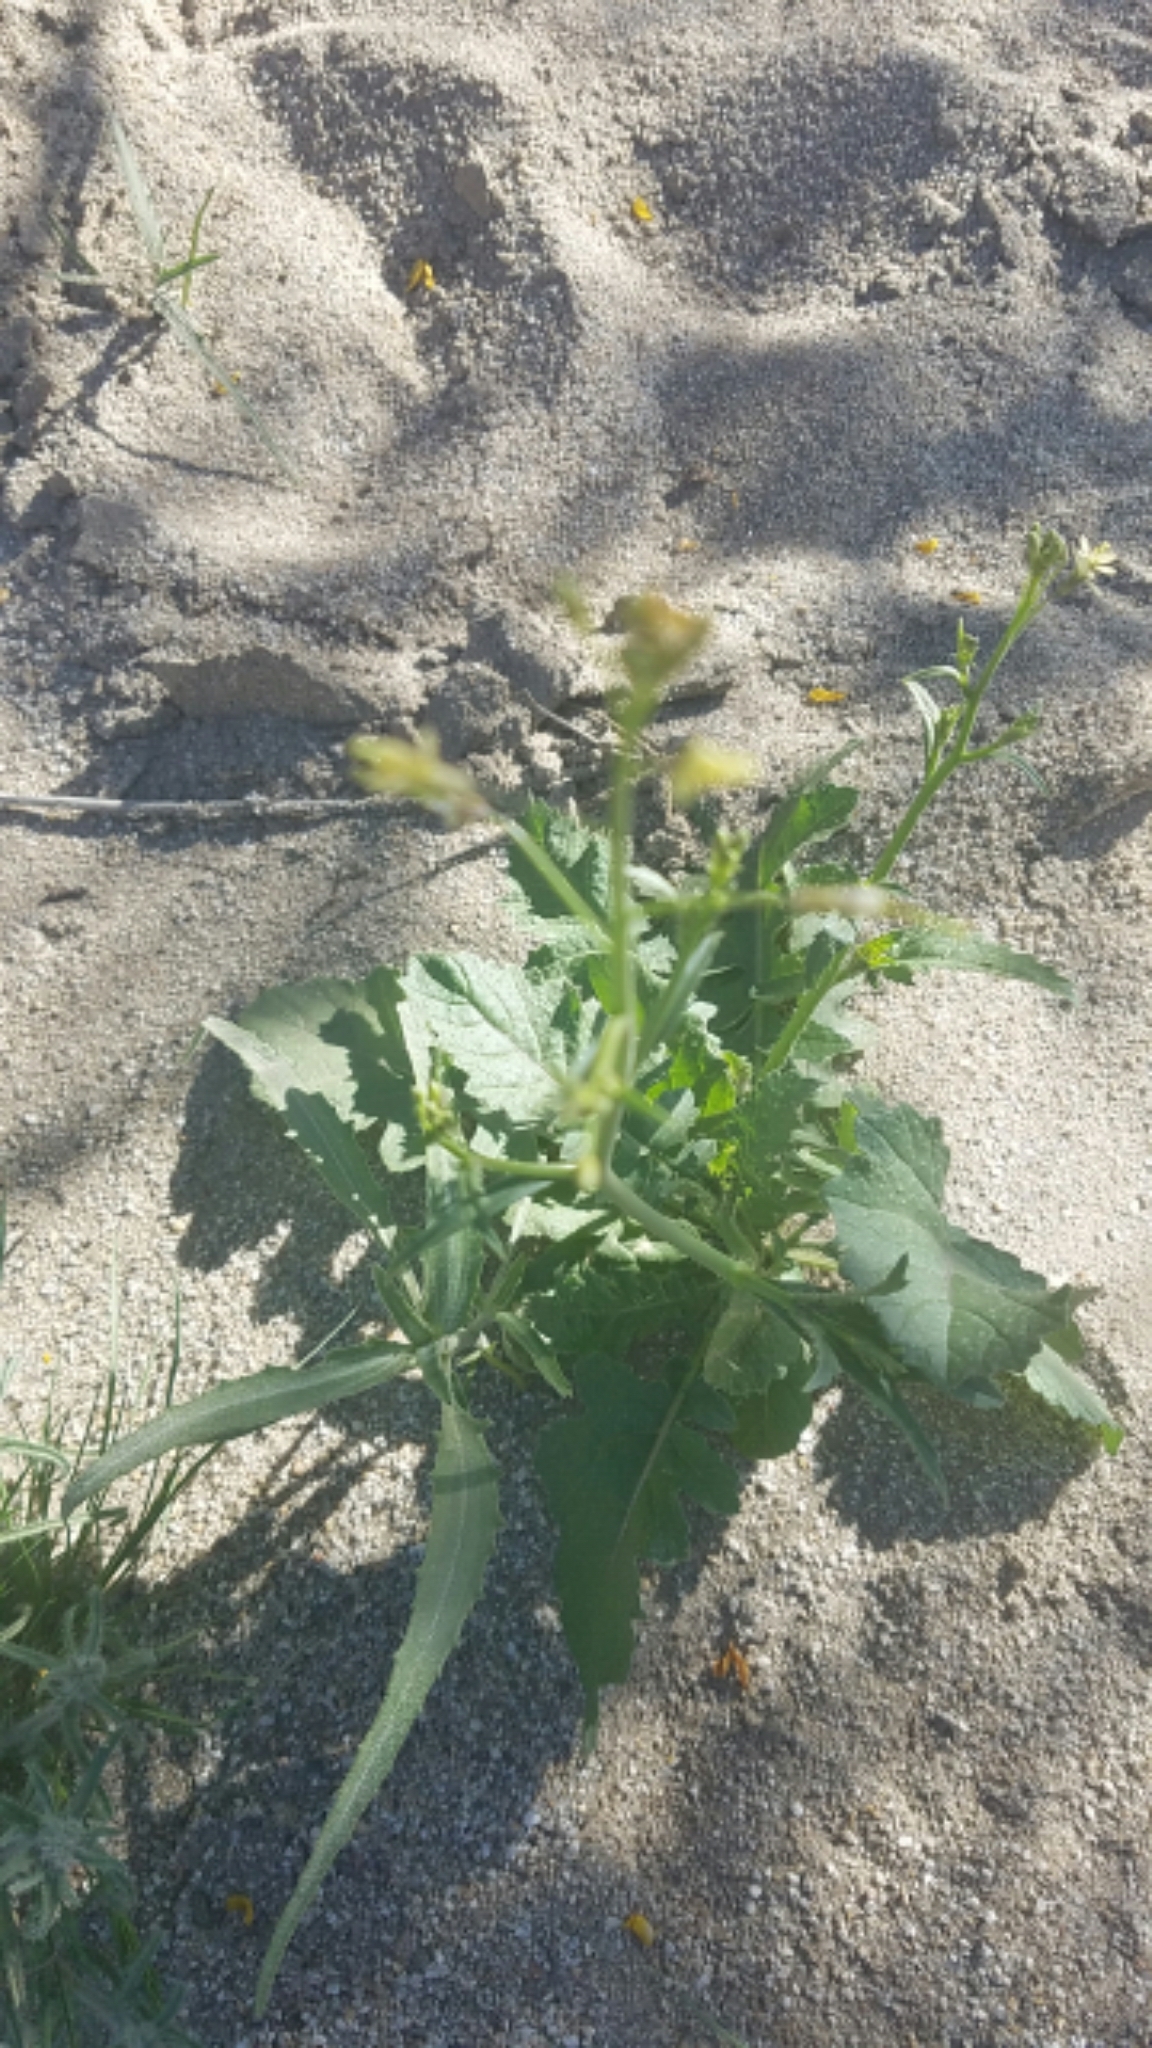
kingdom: Plantae
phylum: Tracheophyta
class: Magnoliopsida
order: Brassicales
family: Brassicaceae
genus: Brassica
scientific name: Brassica tournefortii
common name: Pale cabbage
